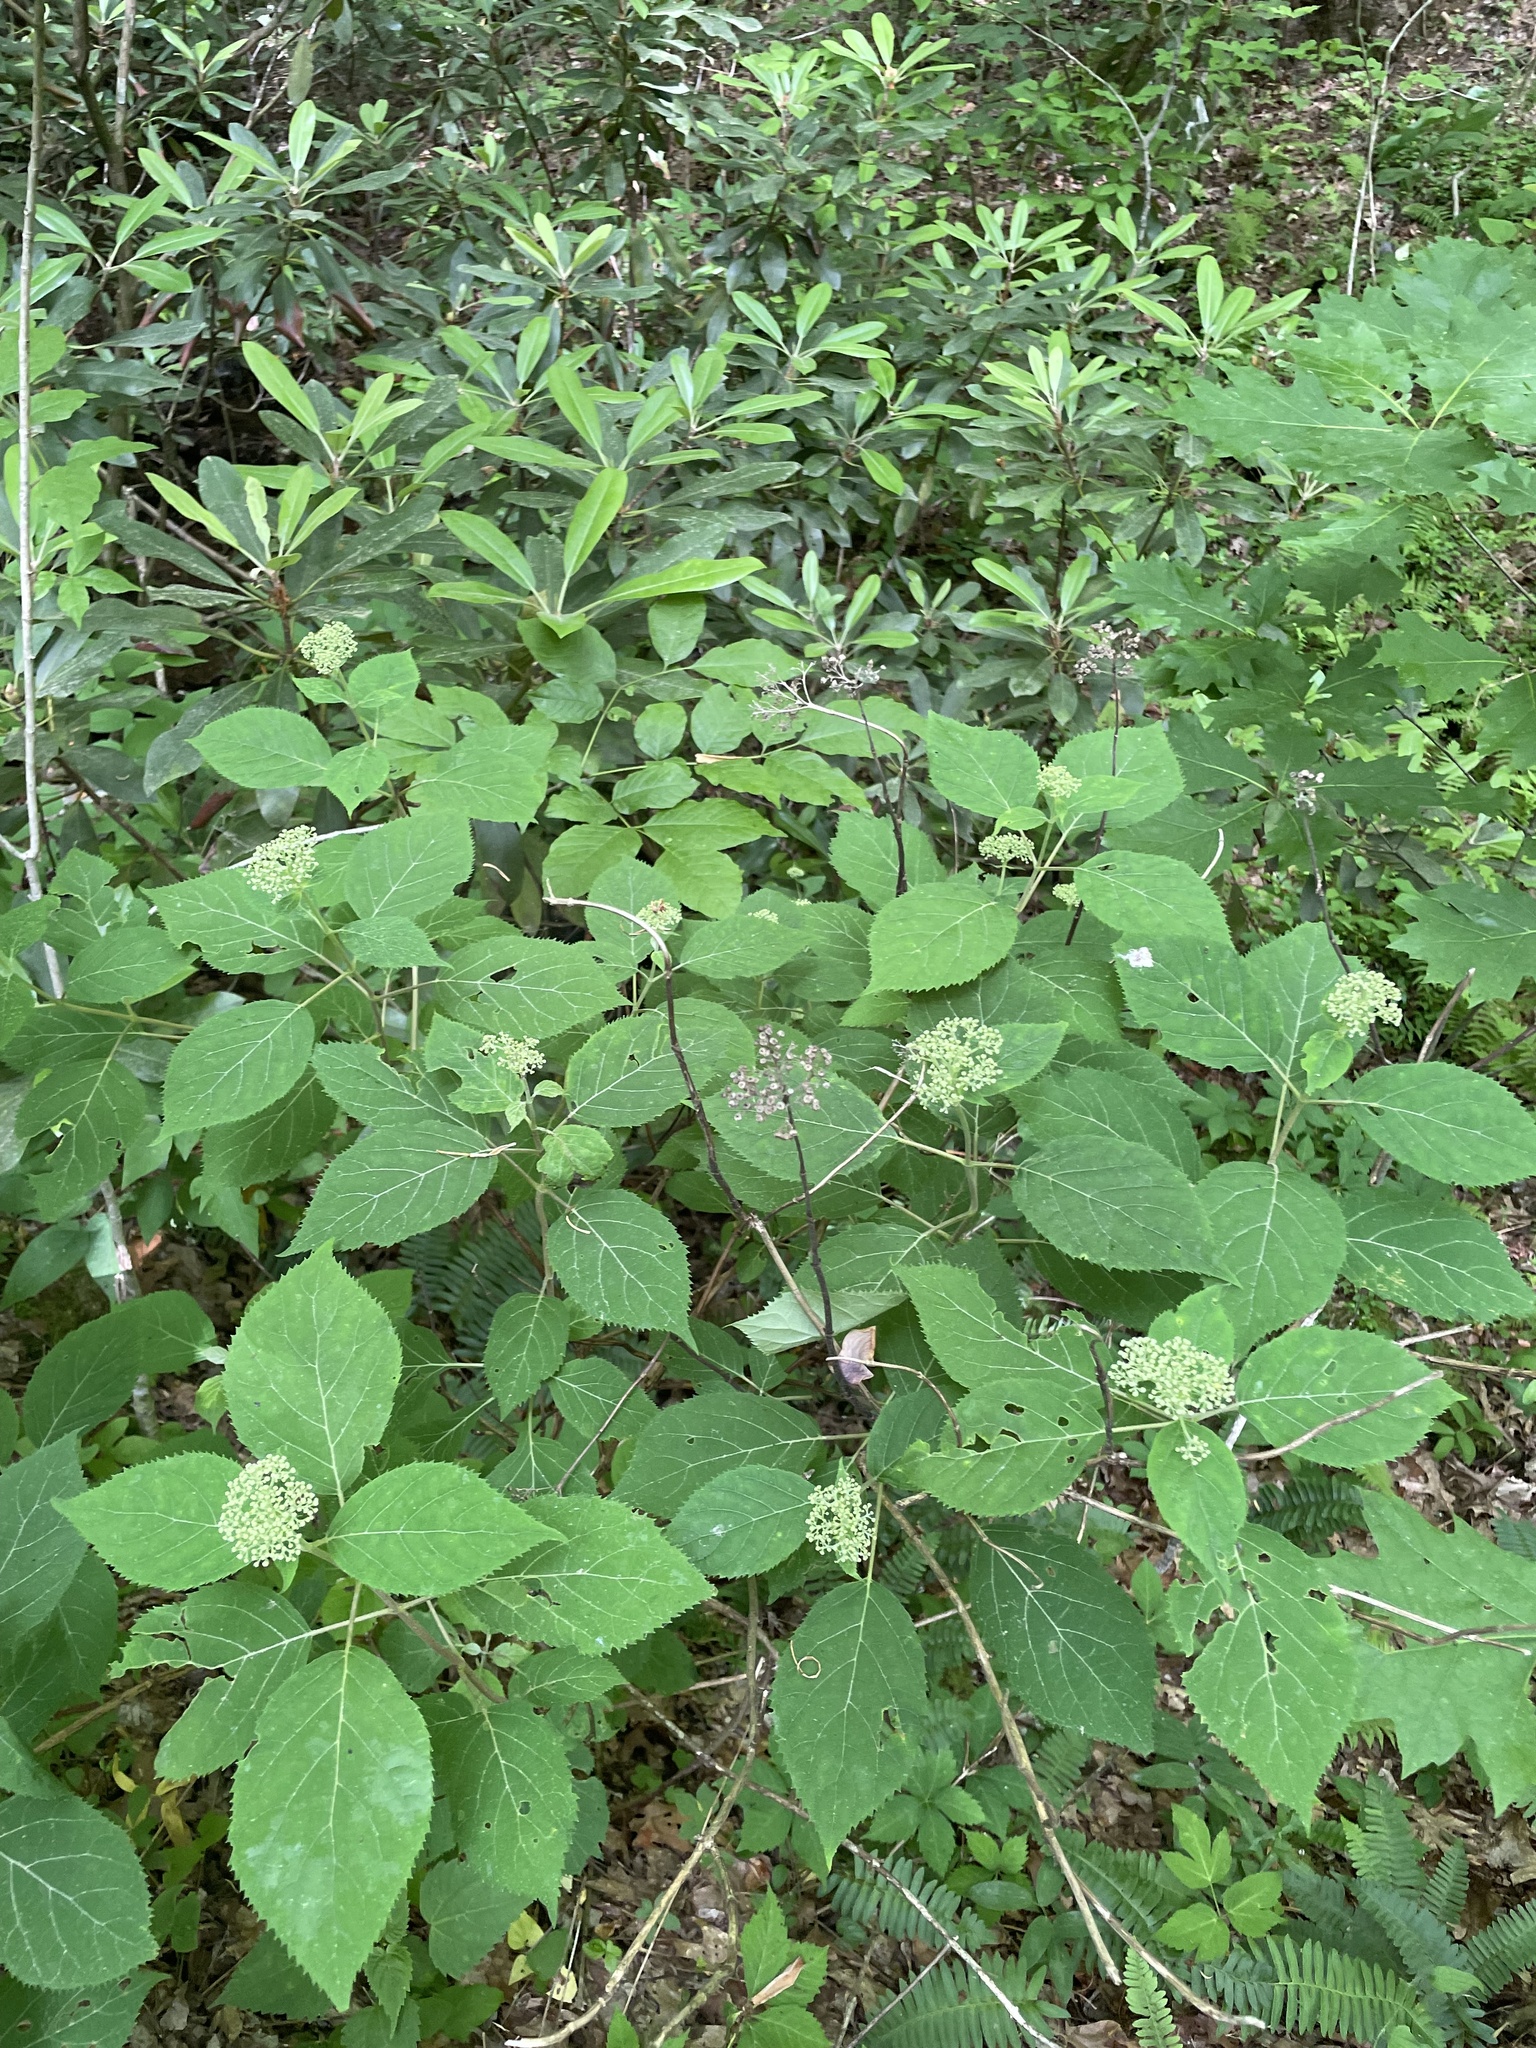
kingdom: Plantae
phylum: Tracheophyta
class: Magnoliopsida
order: Cornales
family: Hydrangeaceae
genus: Hydrangea
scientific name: Hydrangea arborescens
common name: Sevenbark
